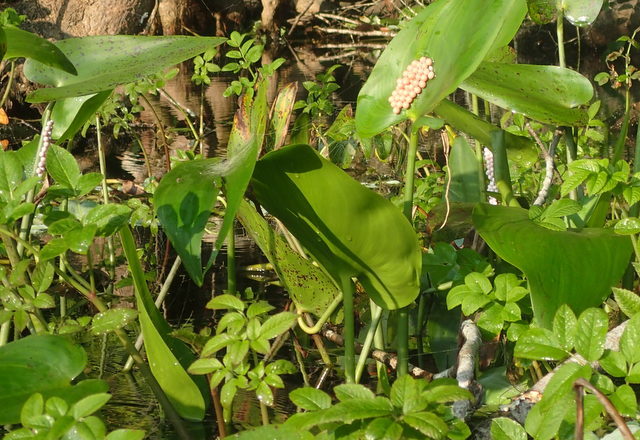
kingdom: Animalia
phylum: Mollusca
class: Gastropoda
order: Architaenioglossa
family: Ampullariidae
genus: Pomacea
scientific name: Pomacea paludosa
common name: Florida applesnail
